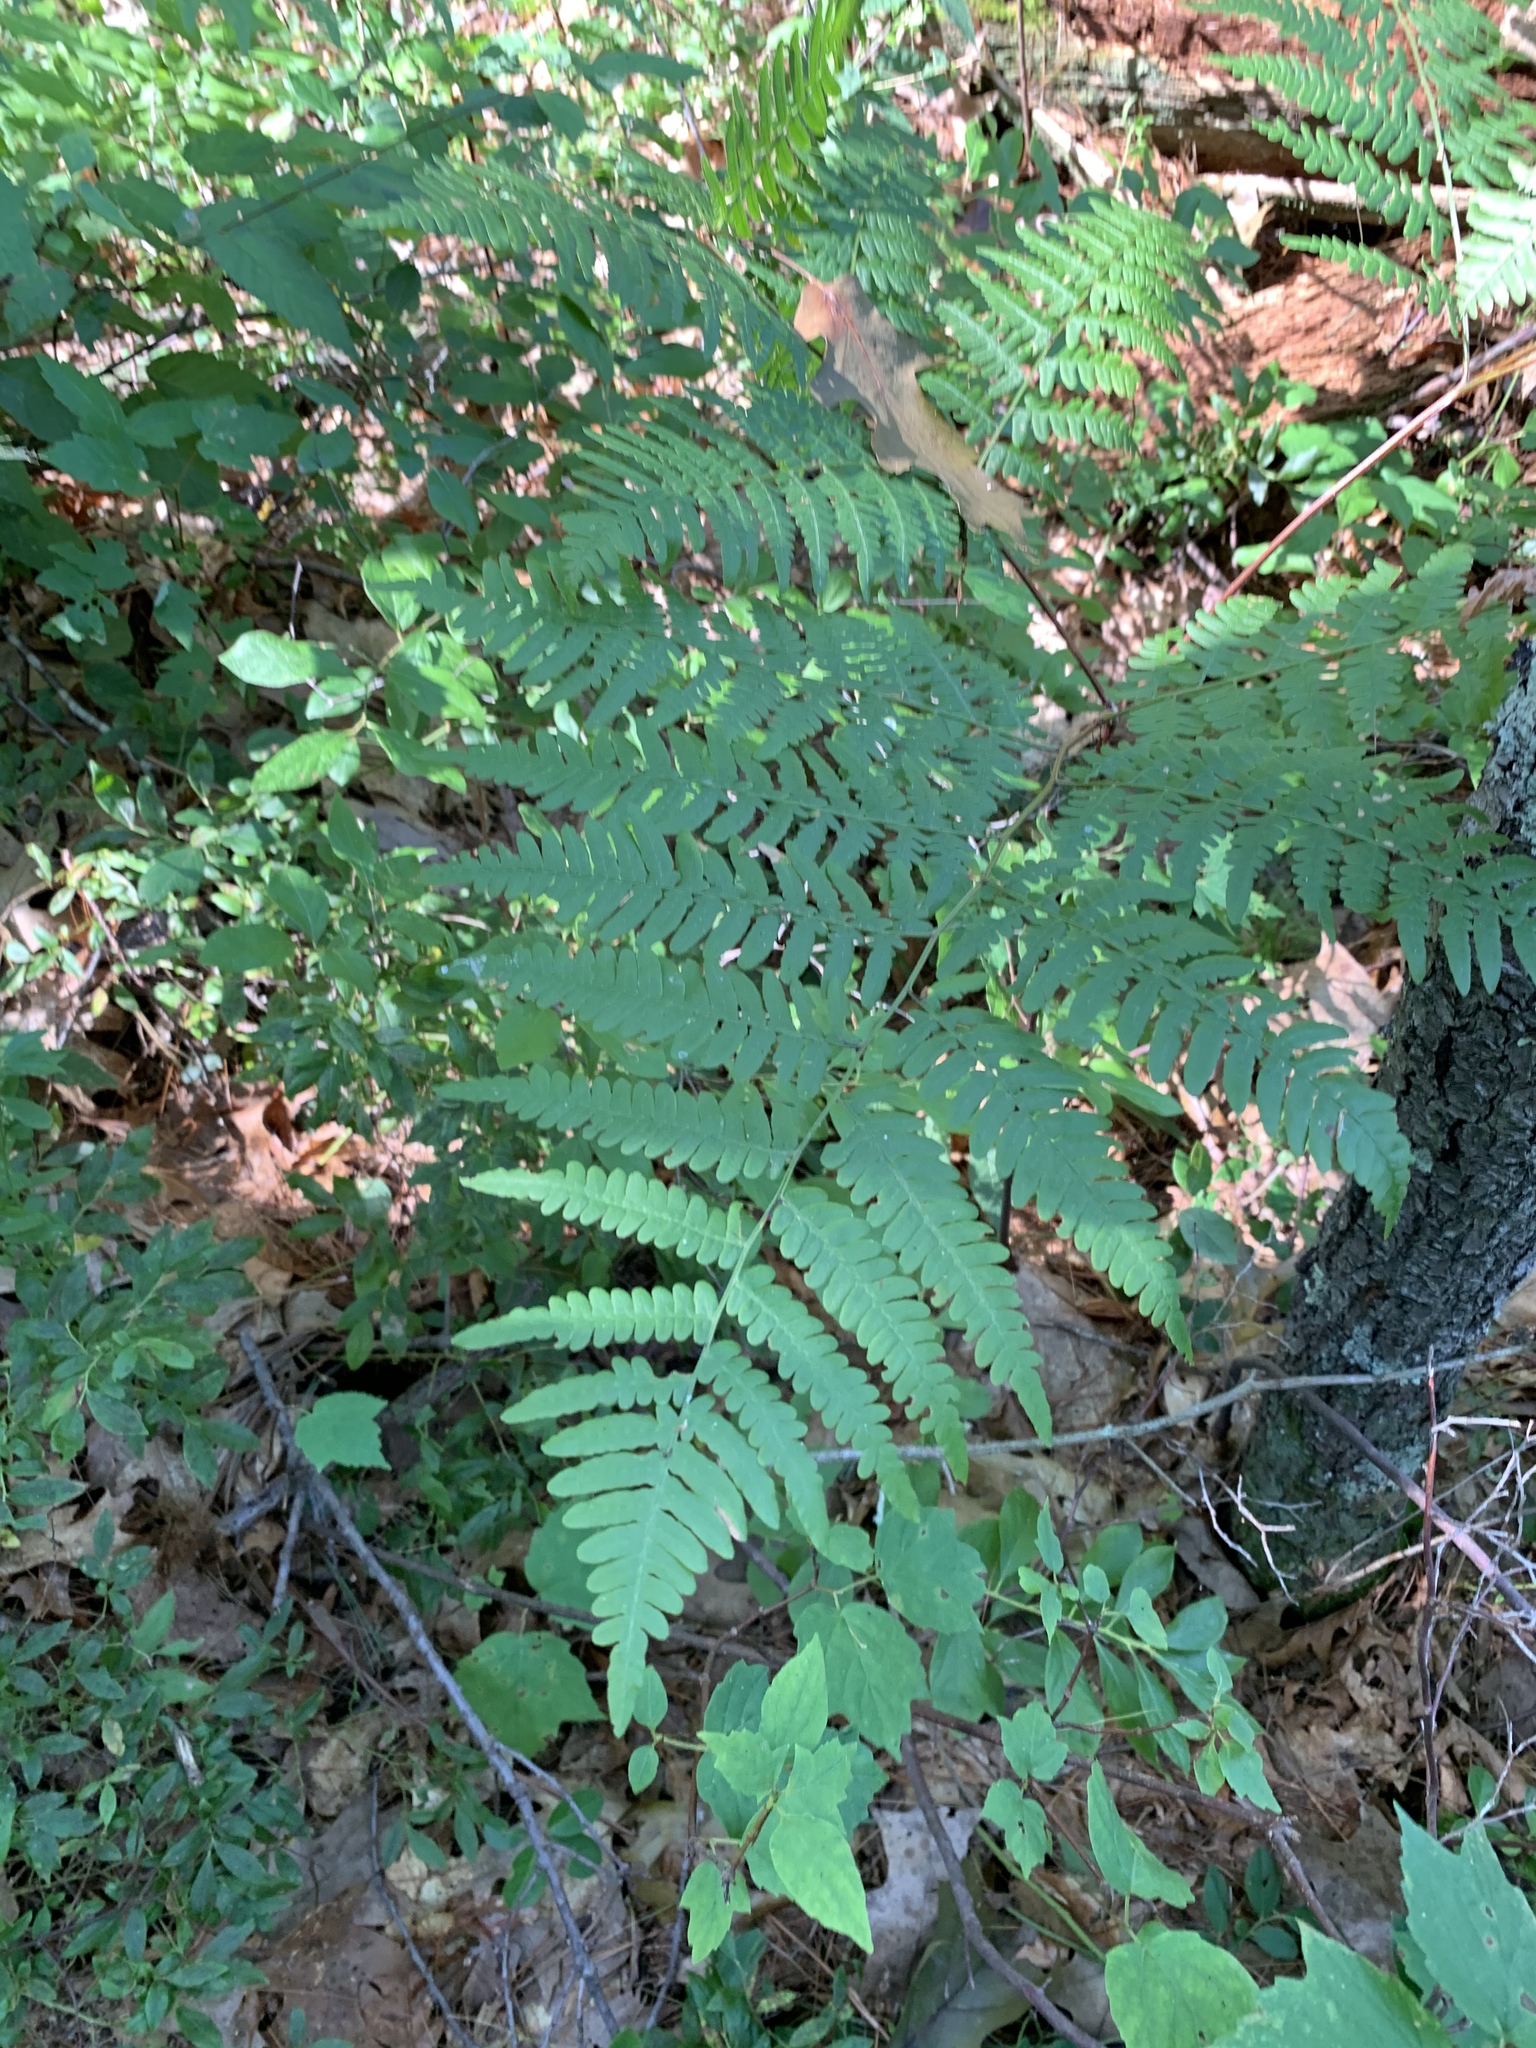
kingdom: Plantae
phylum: Tracheophyta
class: Polypodiopsida
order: Polypodiales
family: Dennstaedtiaceae
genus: Pteridium
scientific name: Pteridium aquilinum
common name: Bracken
